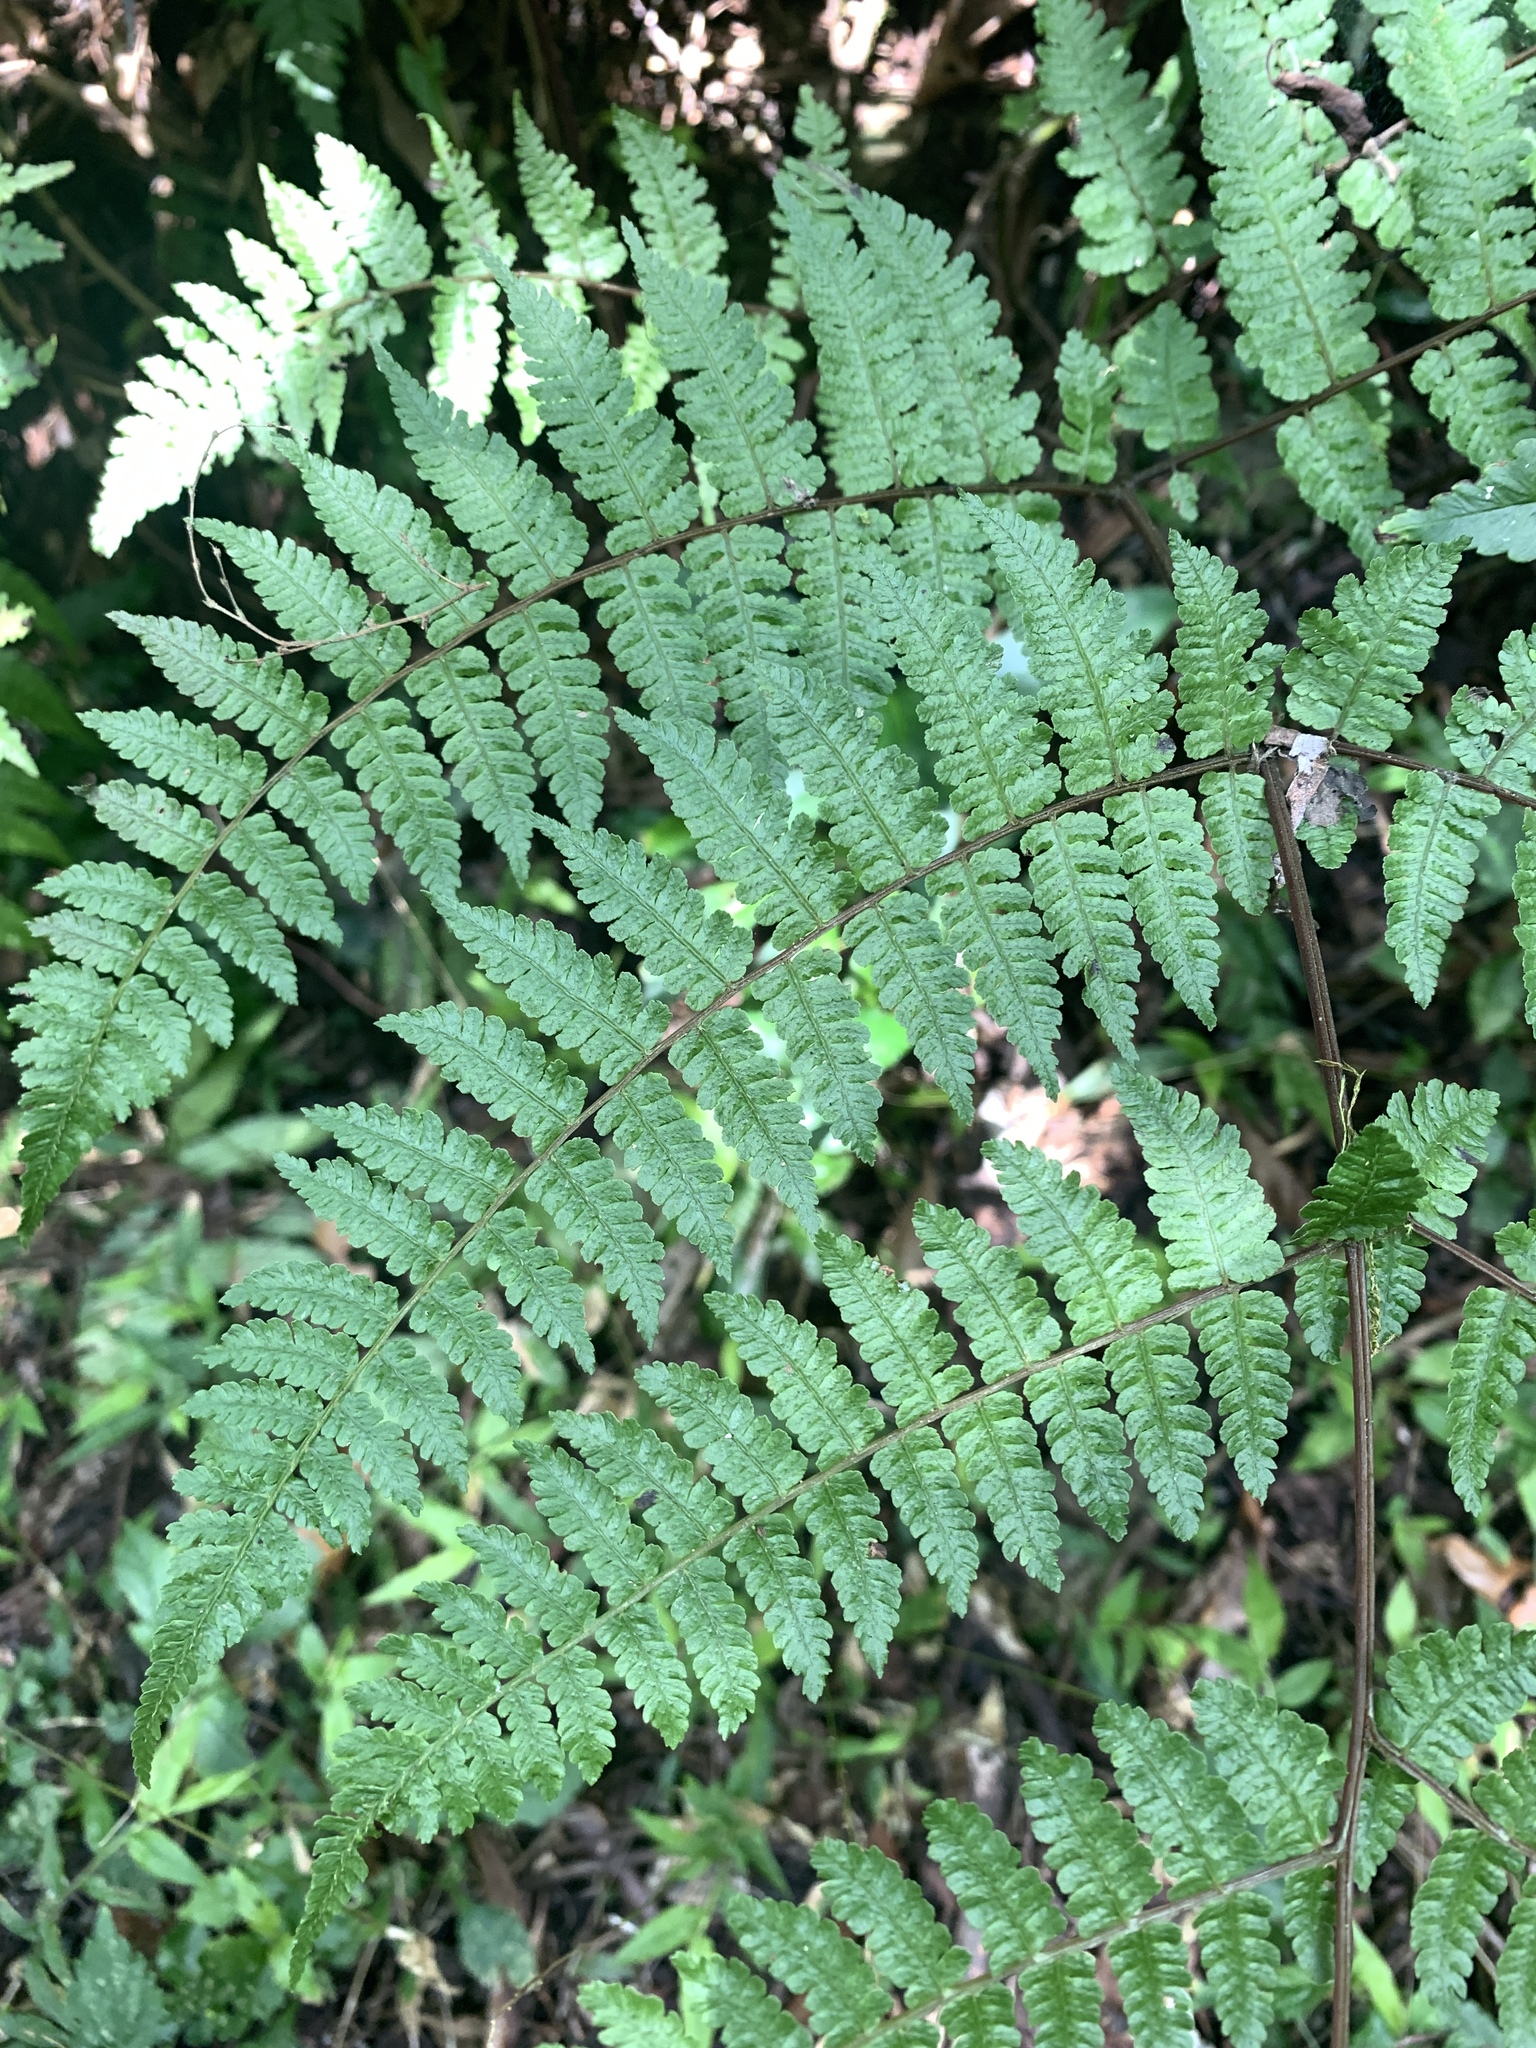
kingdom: Plantae
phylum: Tracheophyta
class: Polypodiopsida
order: Polypodiales
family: Athyriaceae
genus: Cornopteris
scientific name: Cornopteris banajaoensis
